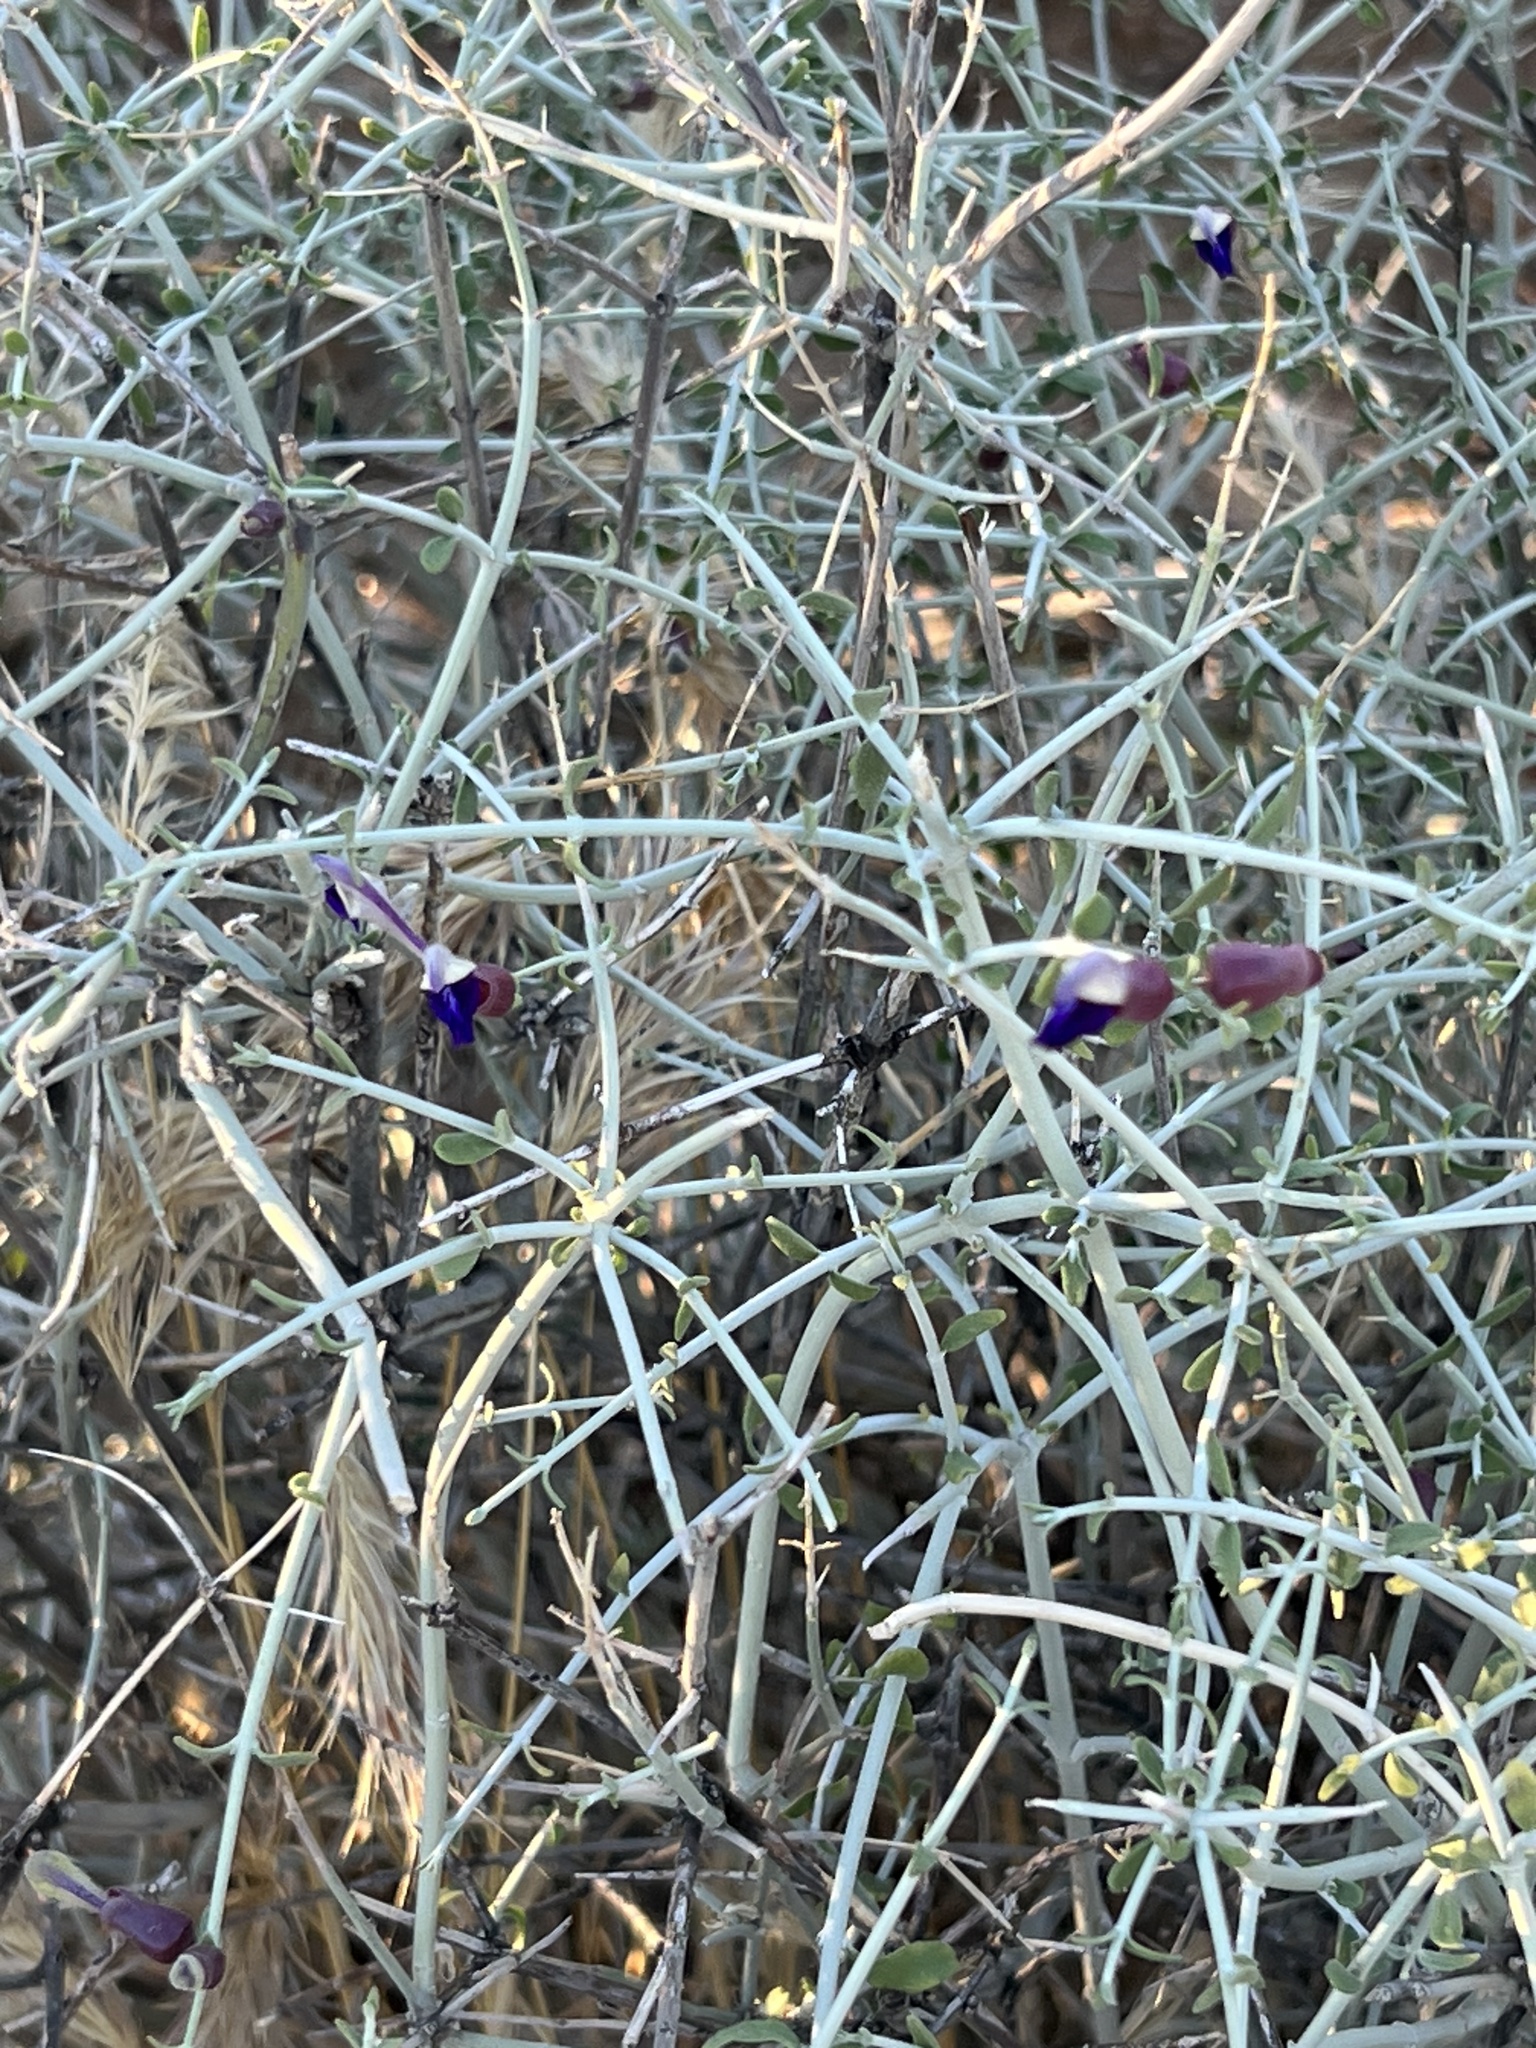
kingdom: Plantae
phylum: Tracheophyta
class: Magnoliopsida
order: Lamiales
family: Lamiaceae
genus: Scutellaria
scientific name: Scutellaria mexicana
